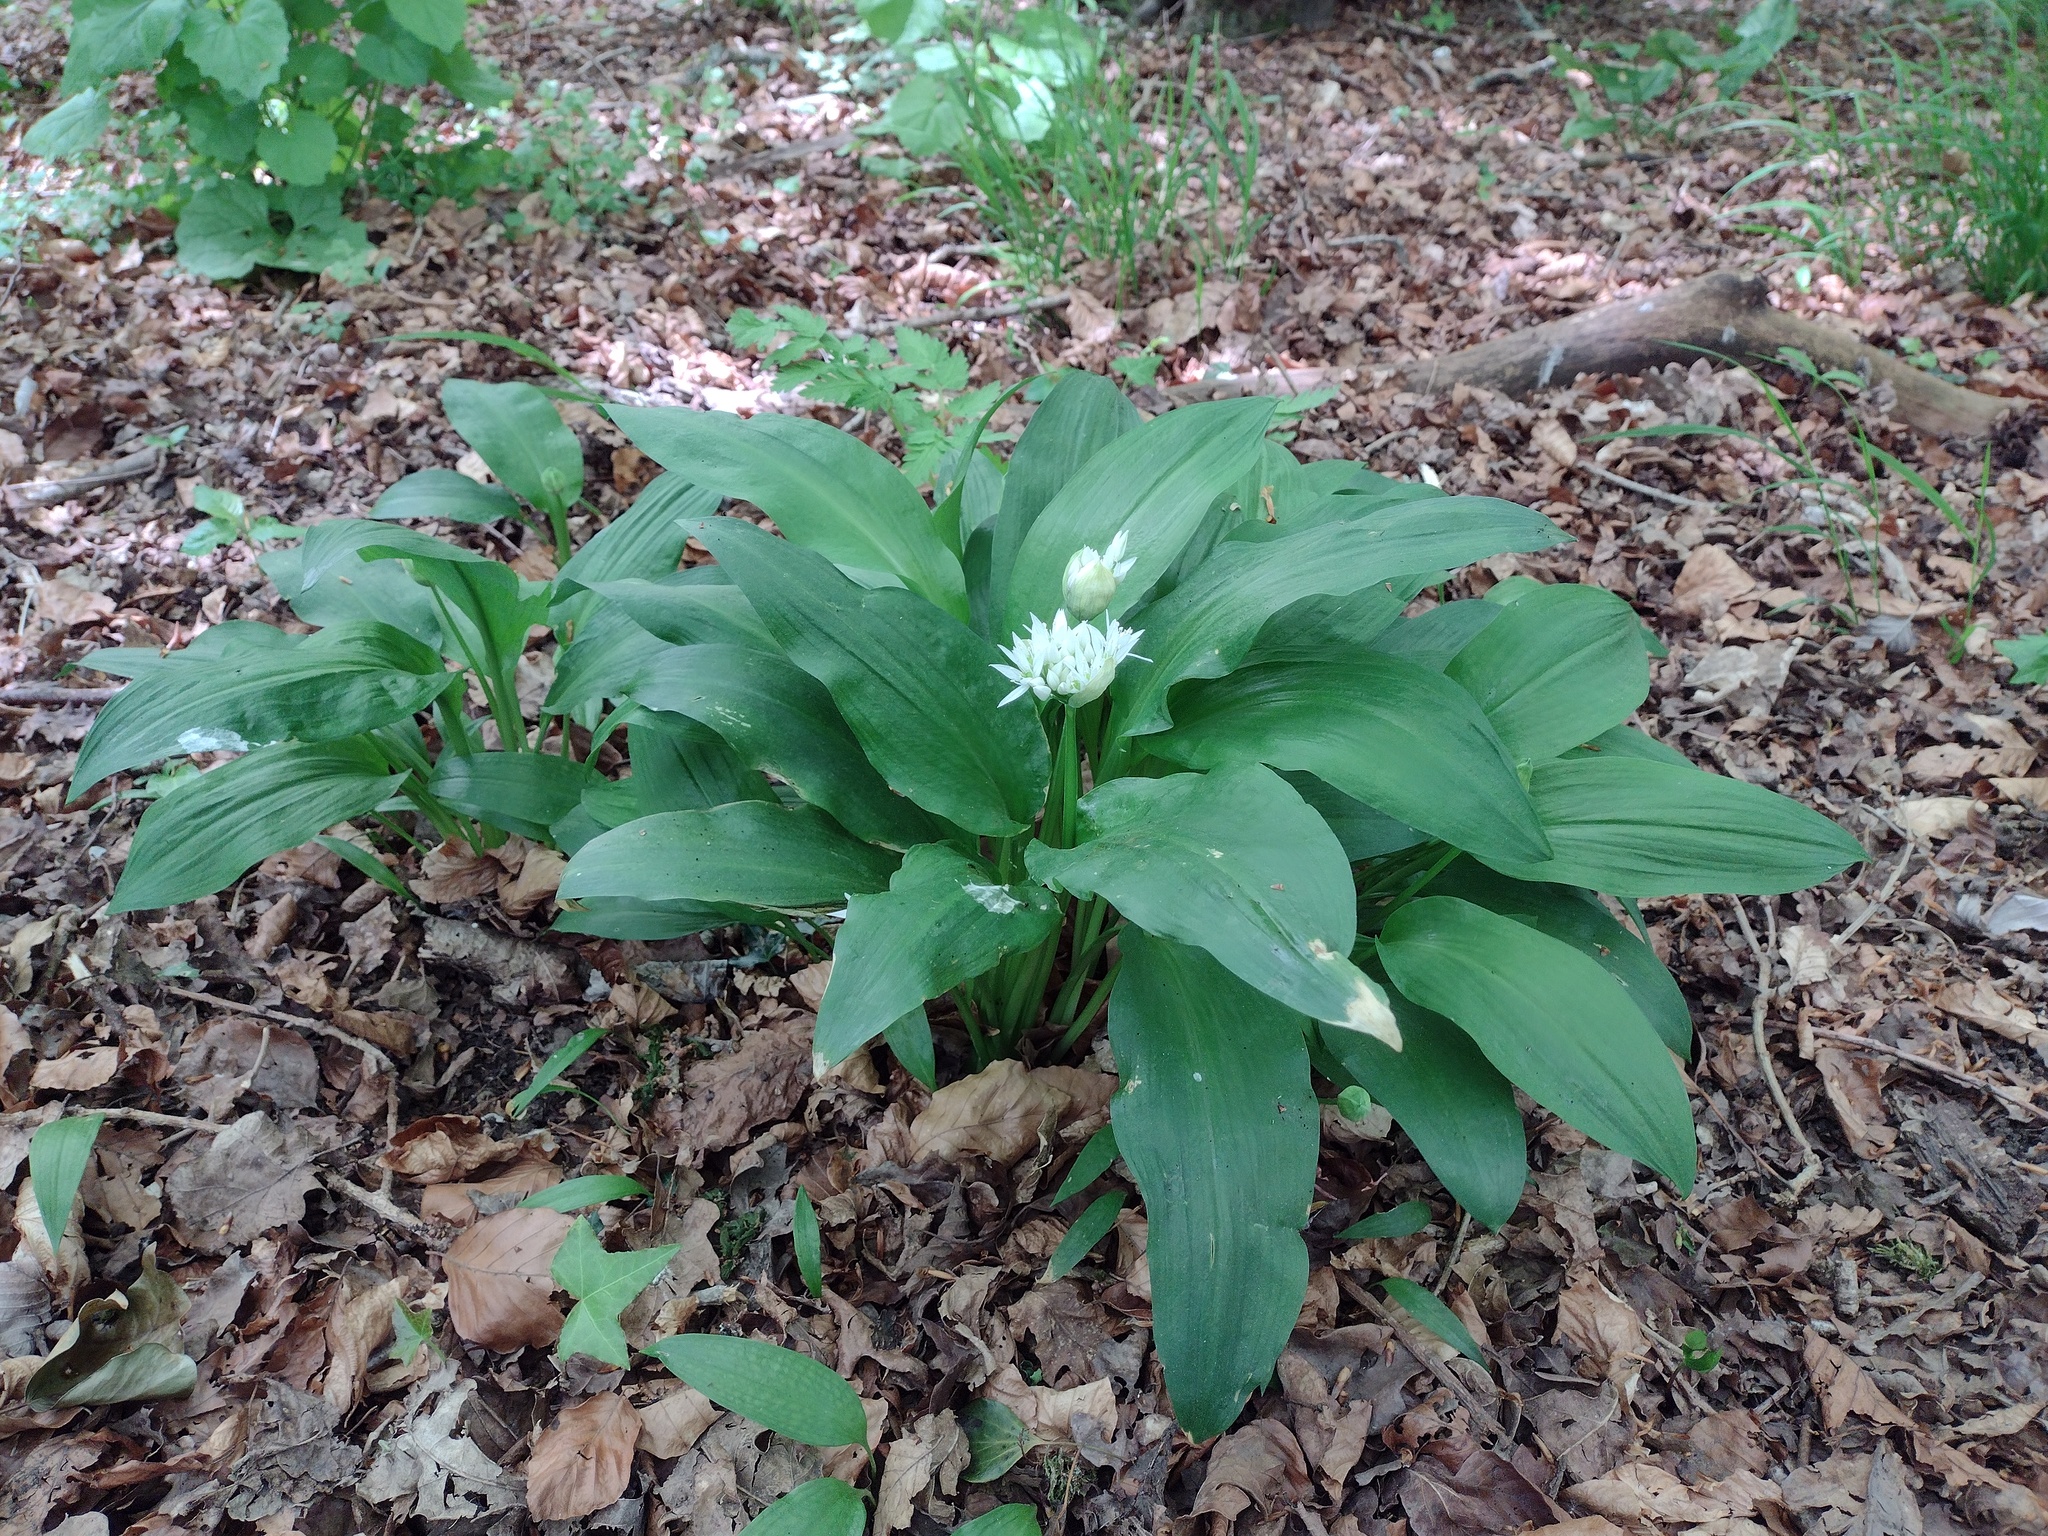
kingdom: Plantae
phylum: Tracheophyta
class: Liliopsida
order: Asparagales
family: Amaryllidaceae
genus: Allium
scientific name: Allium ursinum
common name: Ramsons
